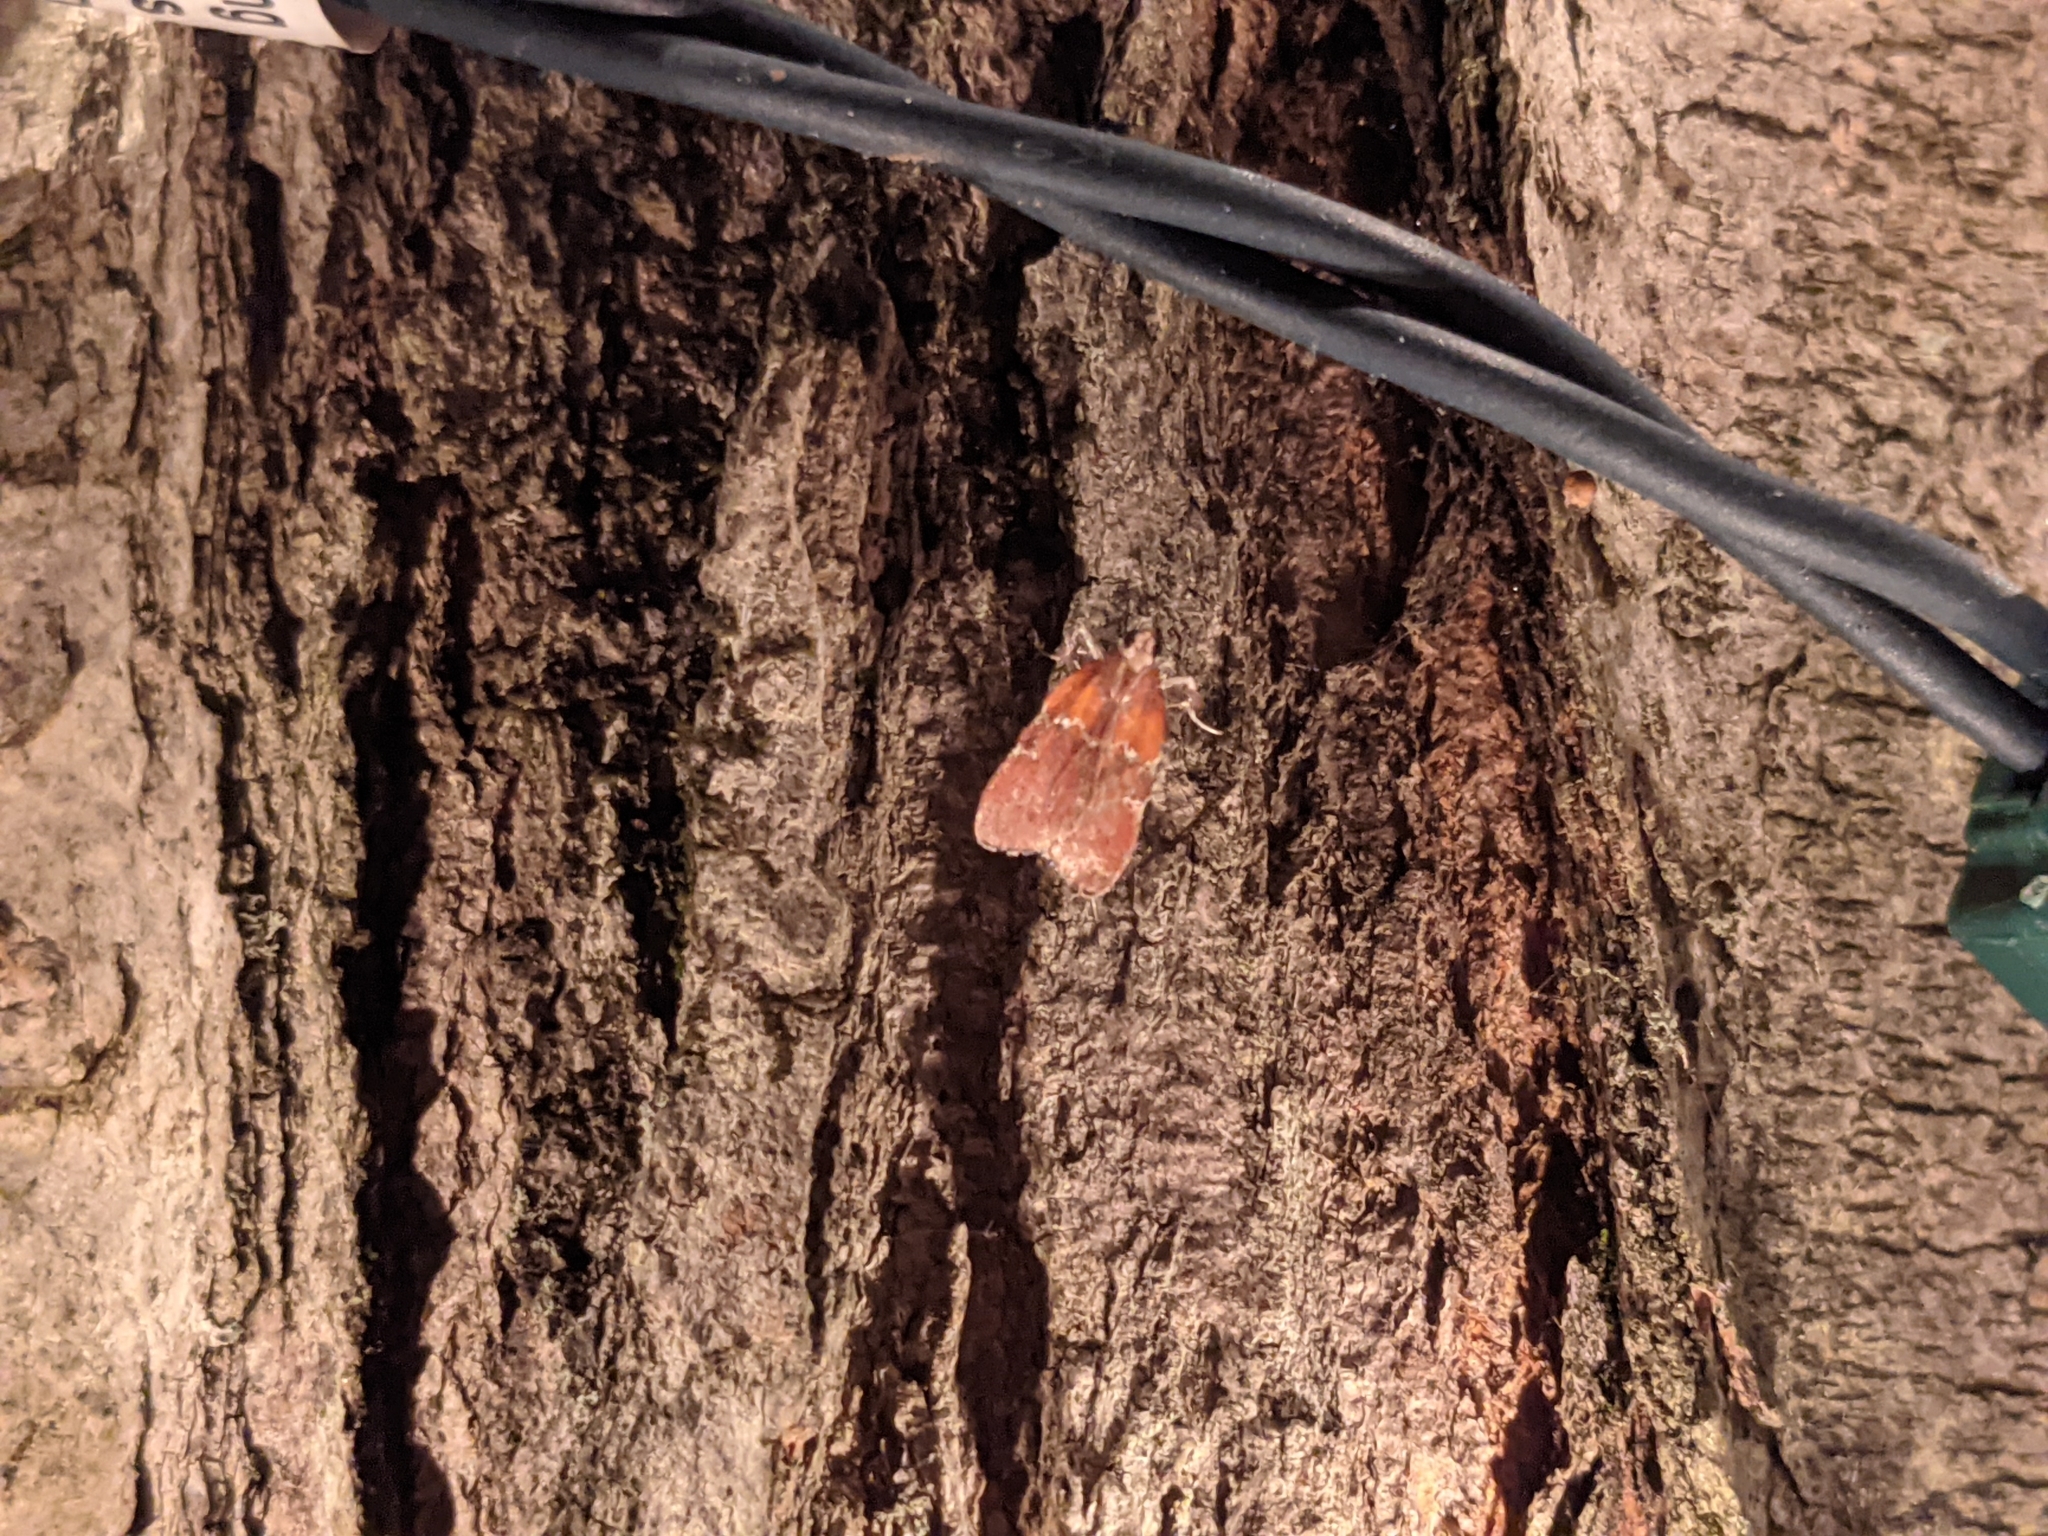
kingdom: Animalia
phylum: Arthropoda
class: Insecta
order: Lepidoptera
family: Pyralidae
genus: Galasa
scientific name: Galasa nigrinodis
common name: Boxwood leaftier moth
